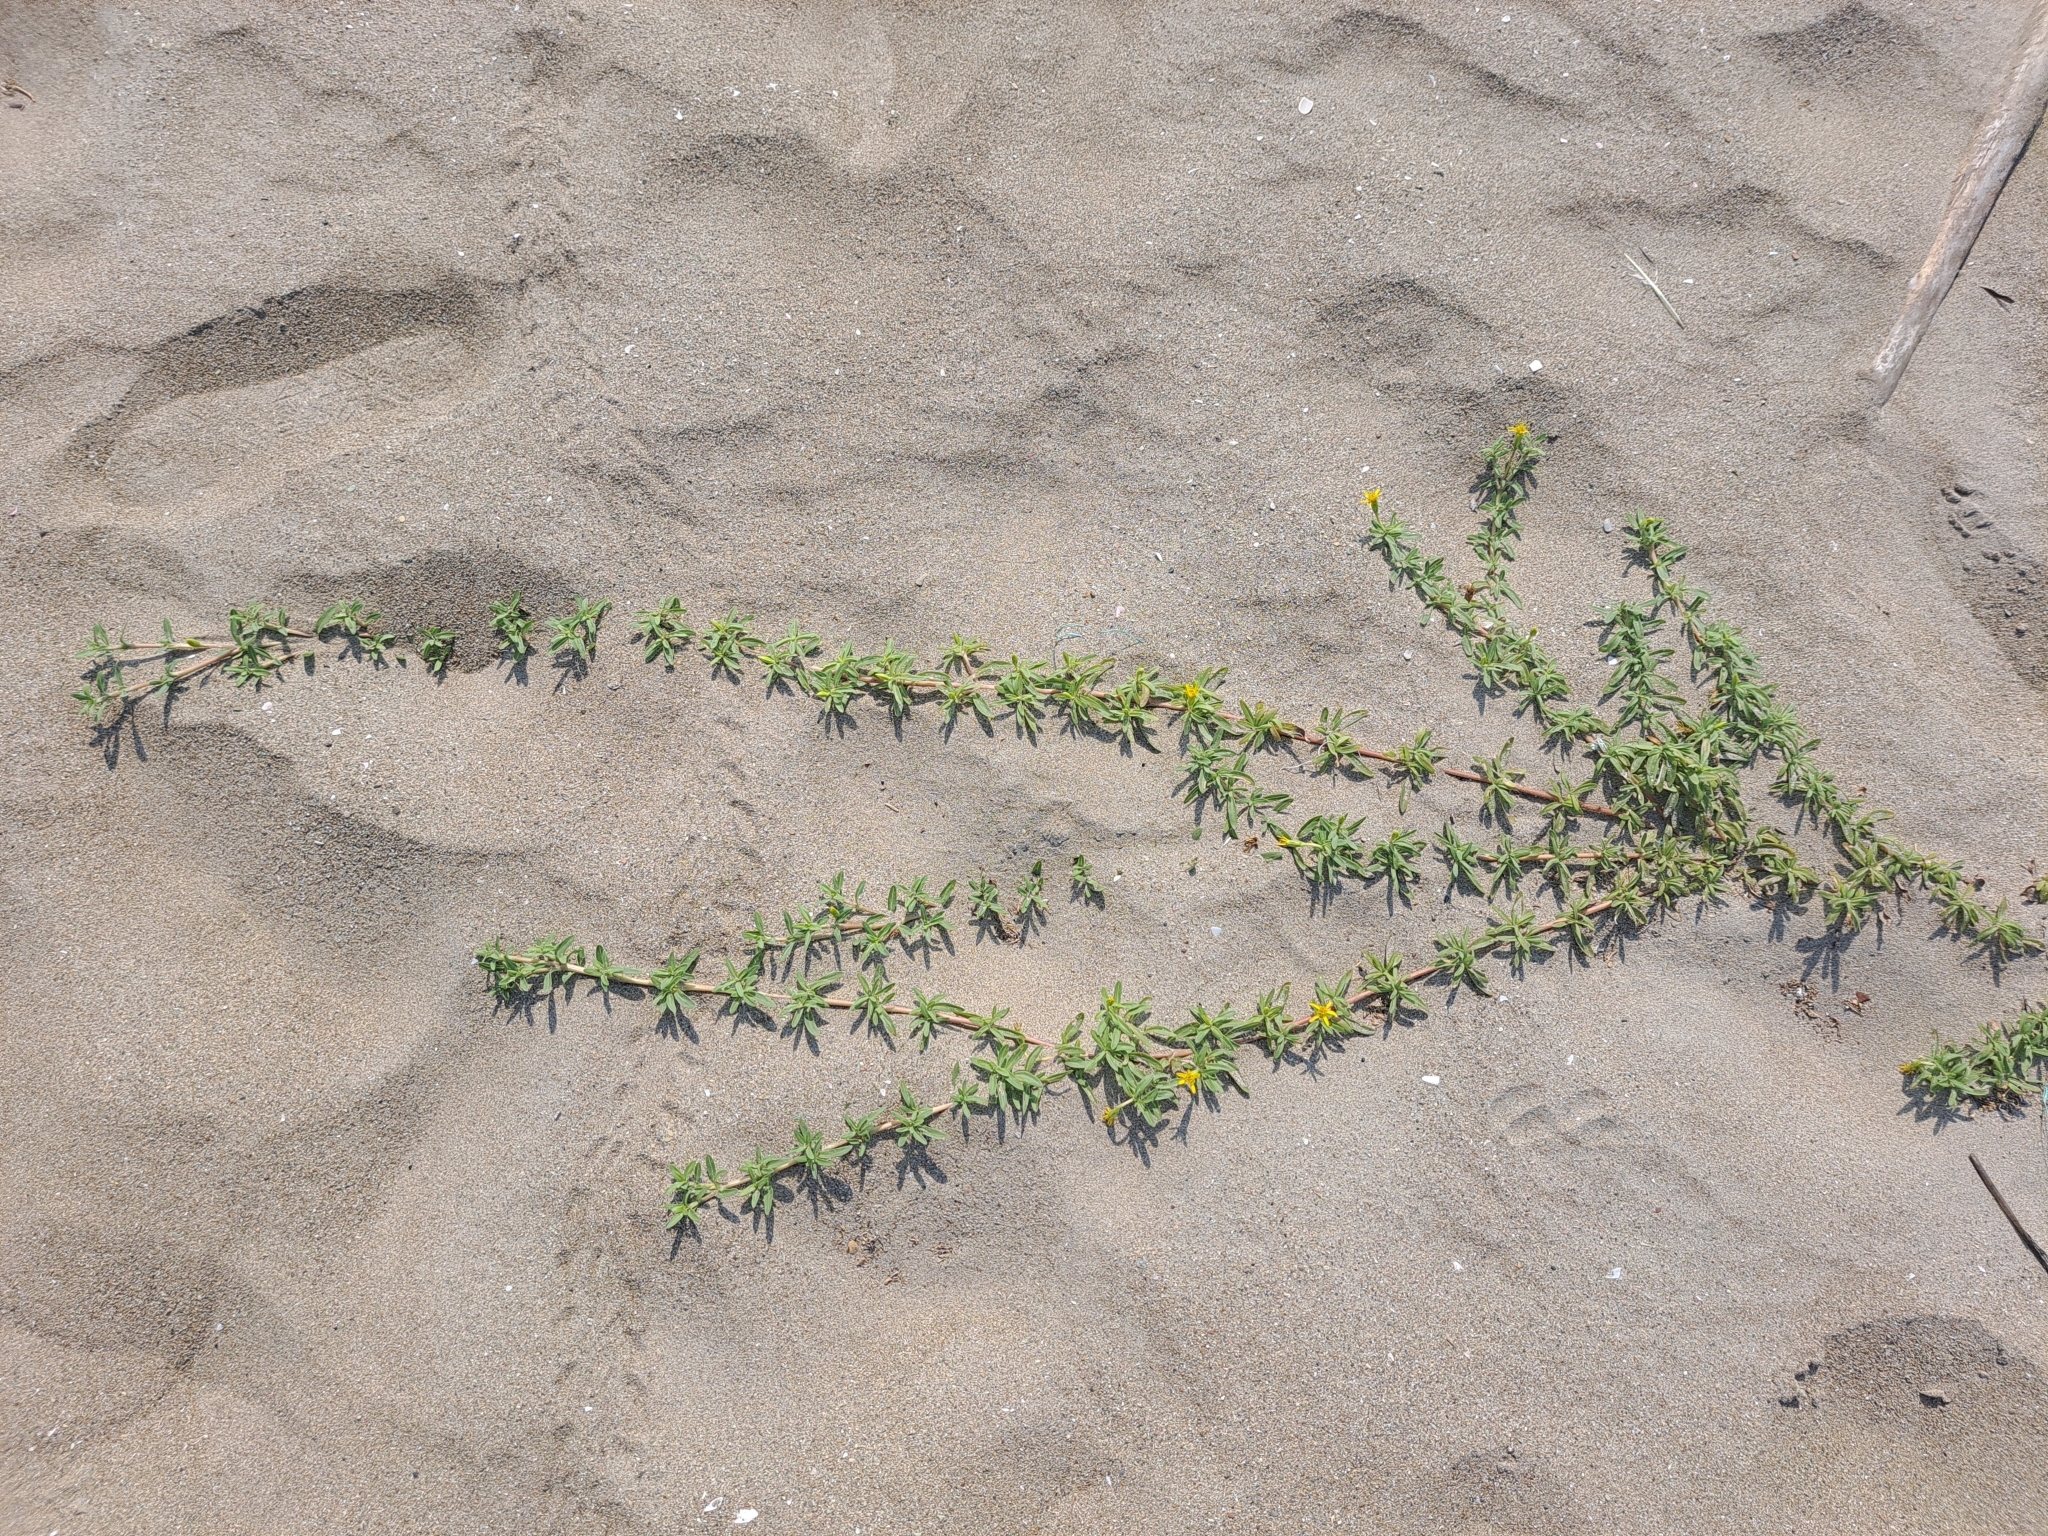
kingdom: Plantae
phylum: Tracheophyta
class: Magnoliopsida
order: Asterales
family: Asteraceae
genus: Pectis
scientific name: Pectis multiflosculosa
